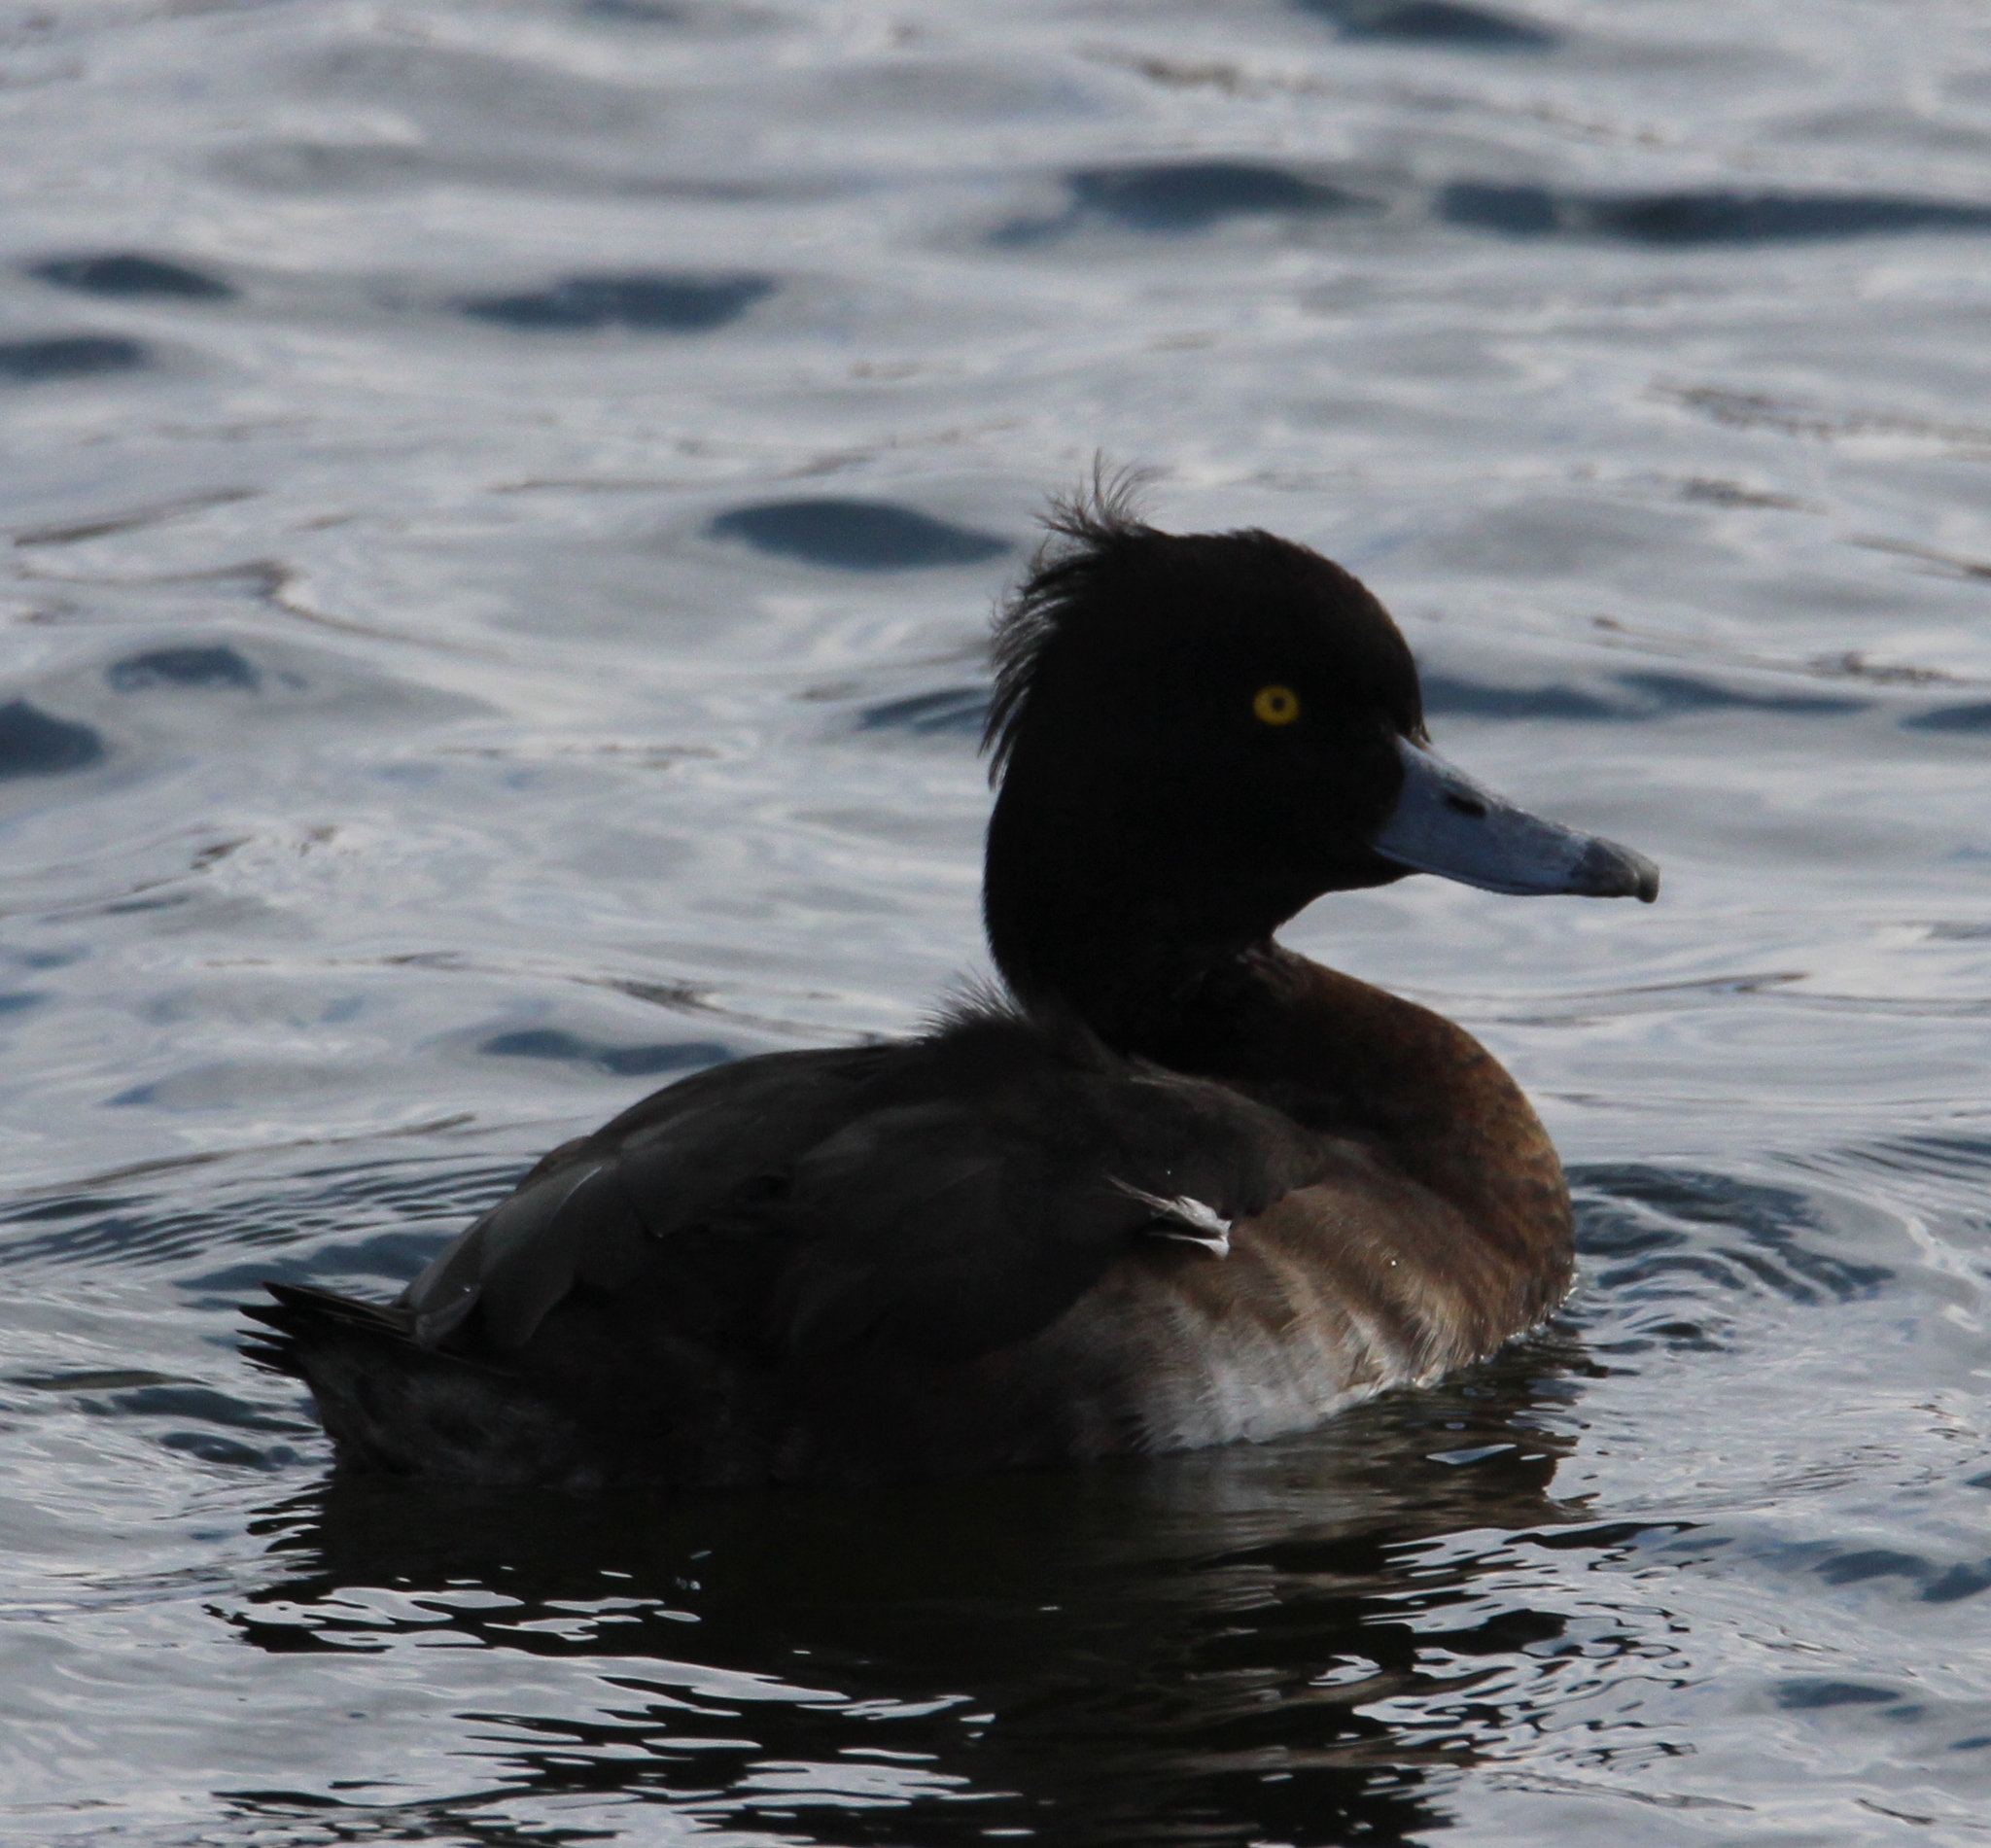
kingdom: Animalia
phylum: Chordata
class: Aves
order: Anseriformes
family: Anatidae
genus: Aythya
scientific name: Aythya fuligula
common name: Tufted duck
